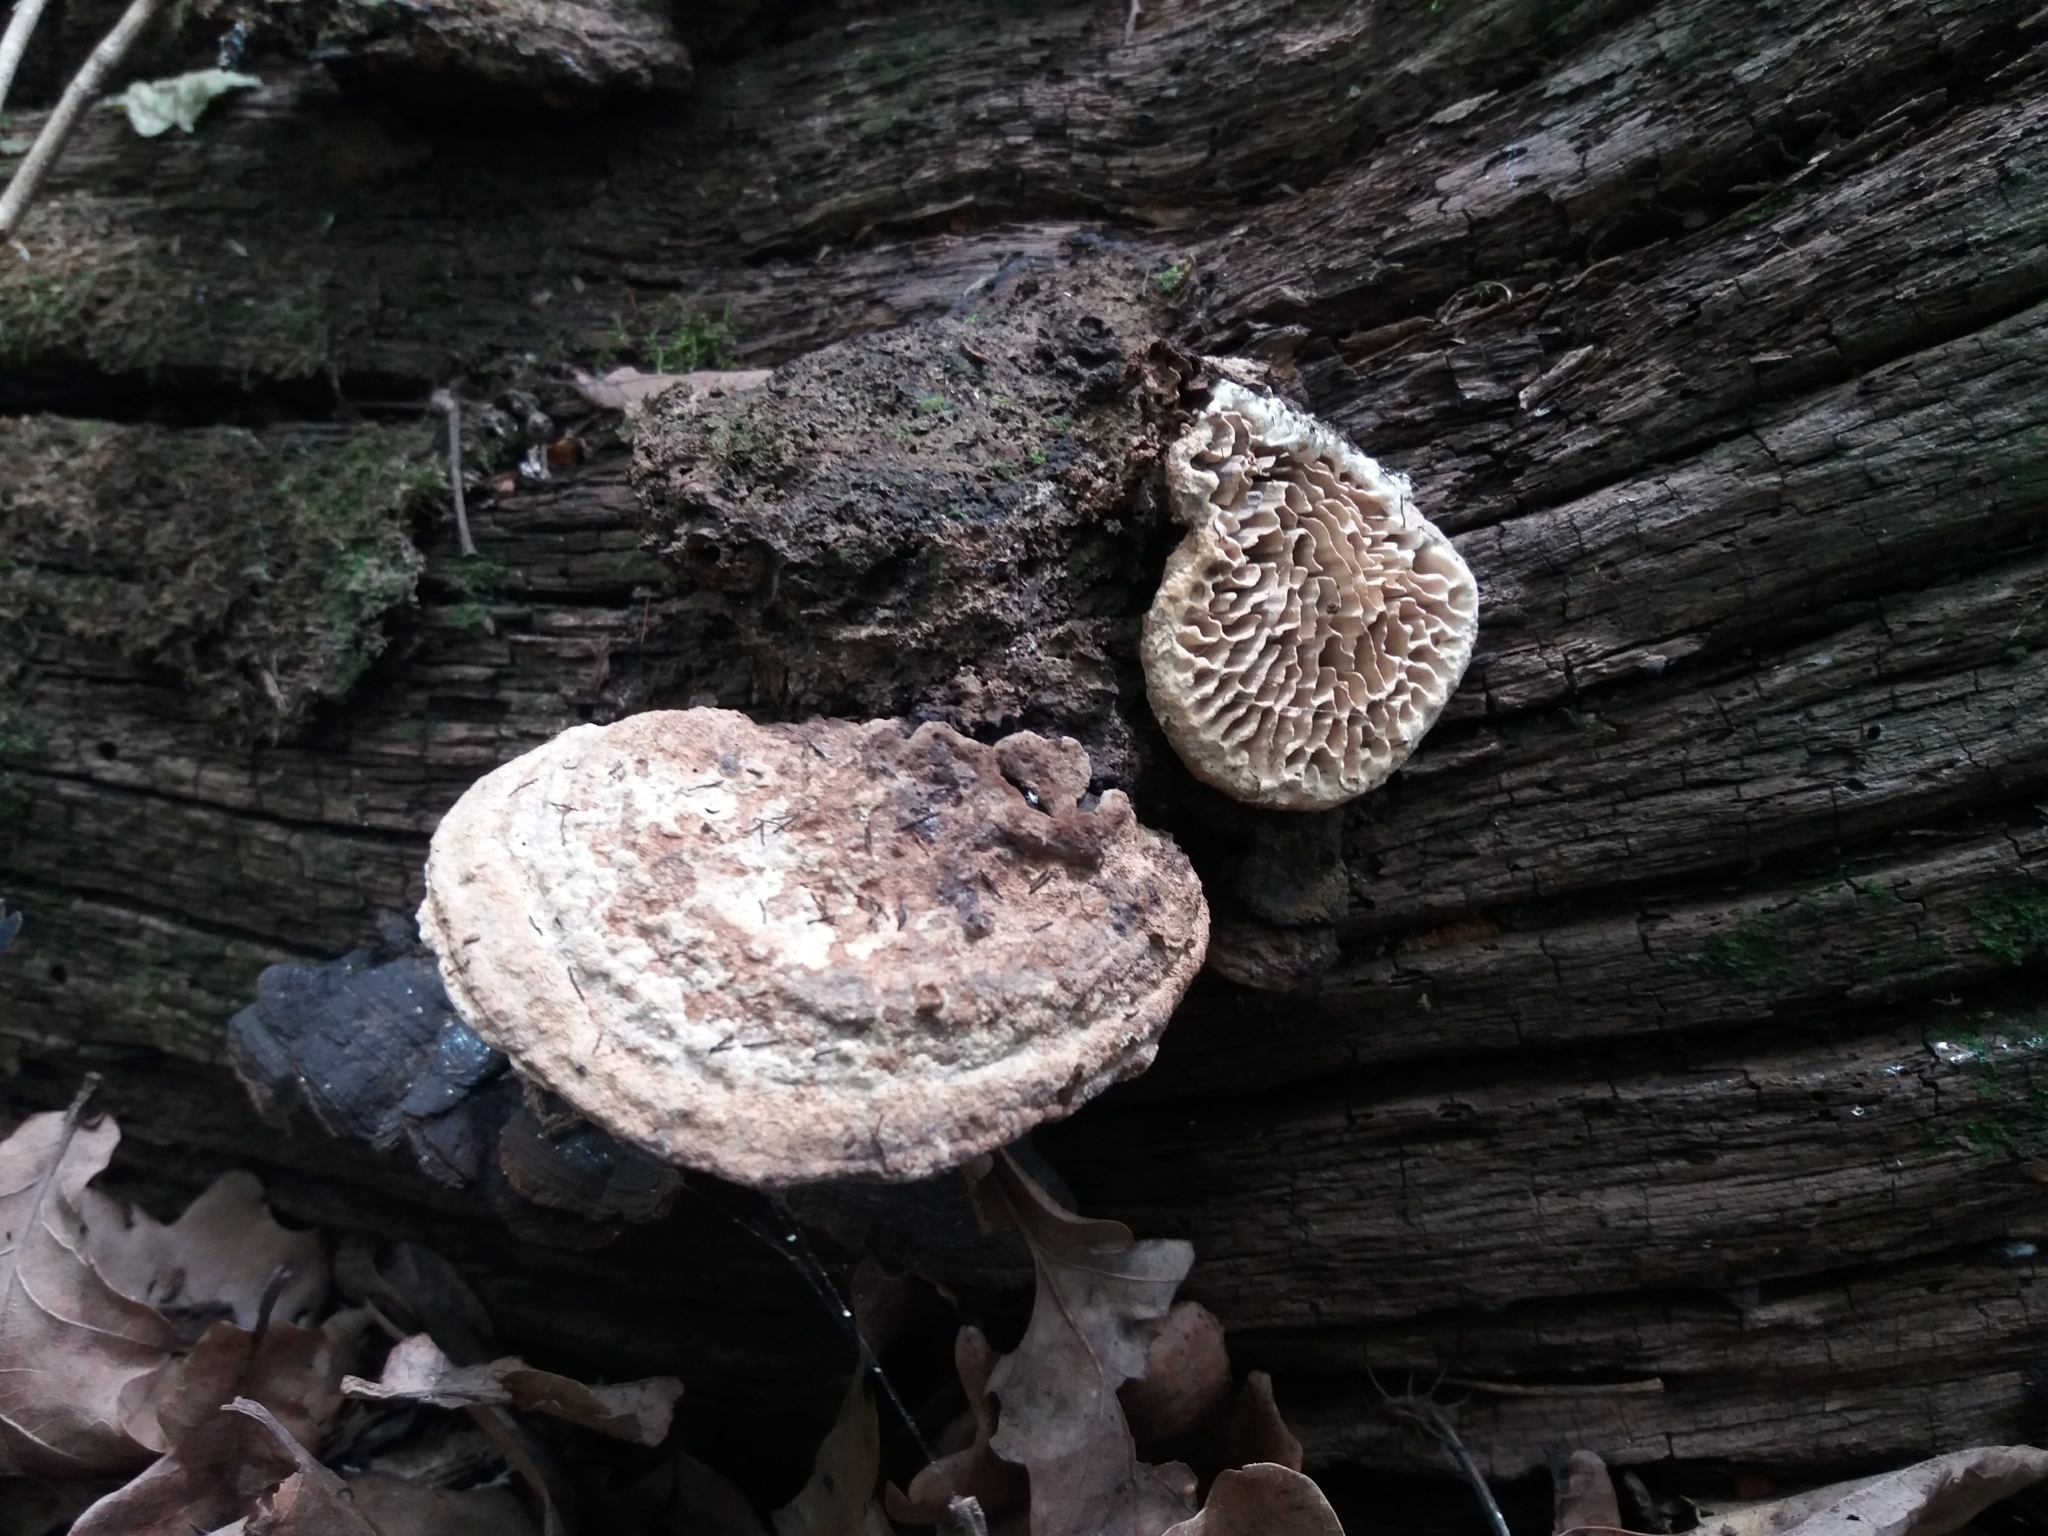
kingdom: Fungi
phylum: Basidiomycota
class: Agaricomycetes
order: Polyporales
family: Fomitopsidaceae
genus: Fomitopsis
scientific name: Fomitopsis
